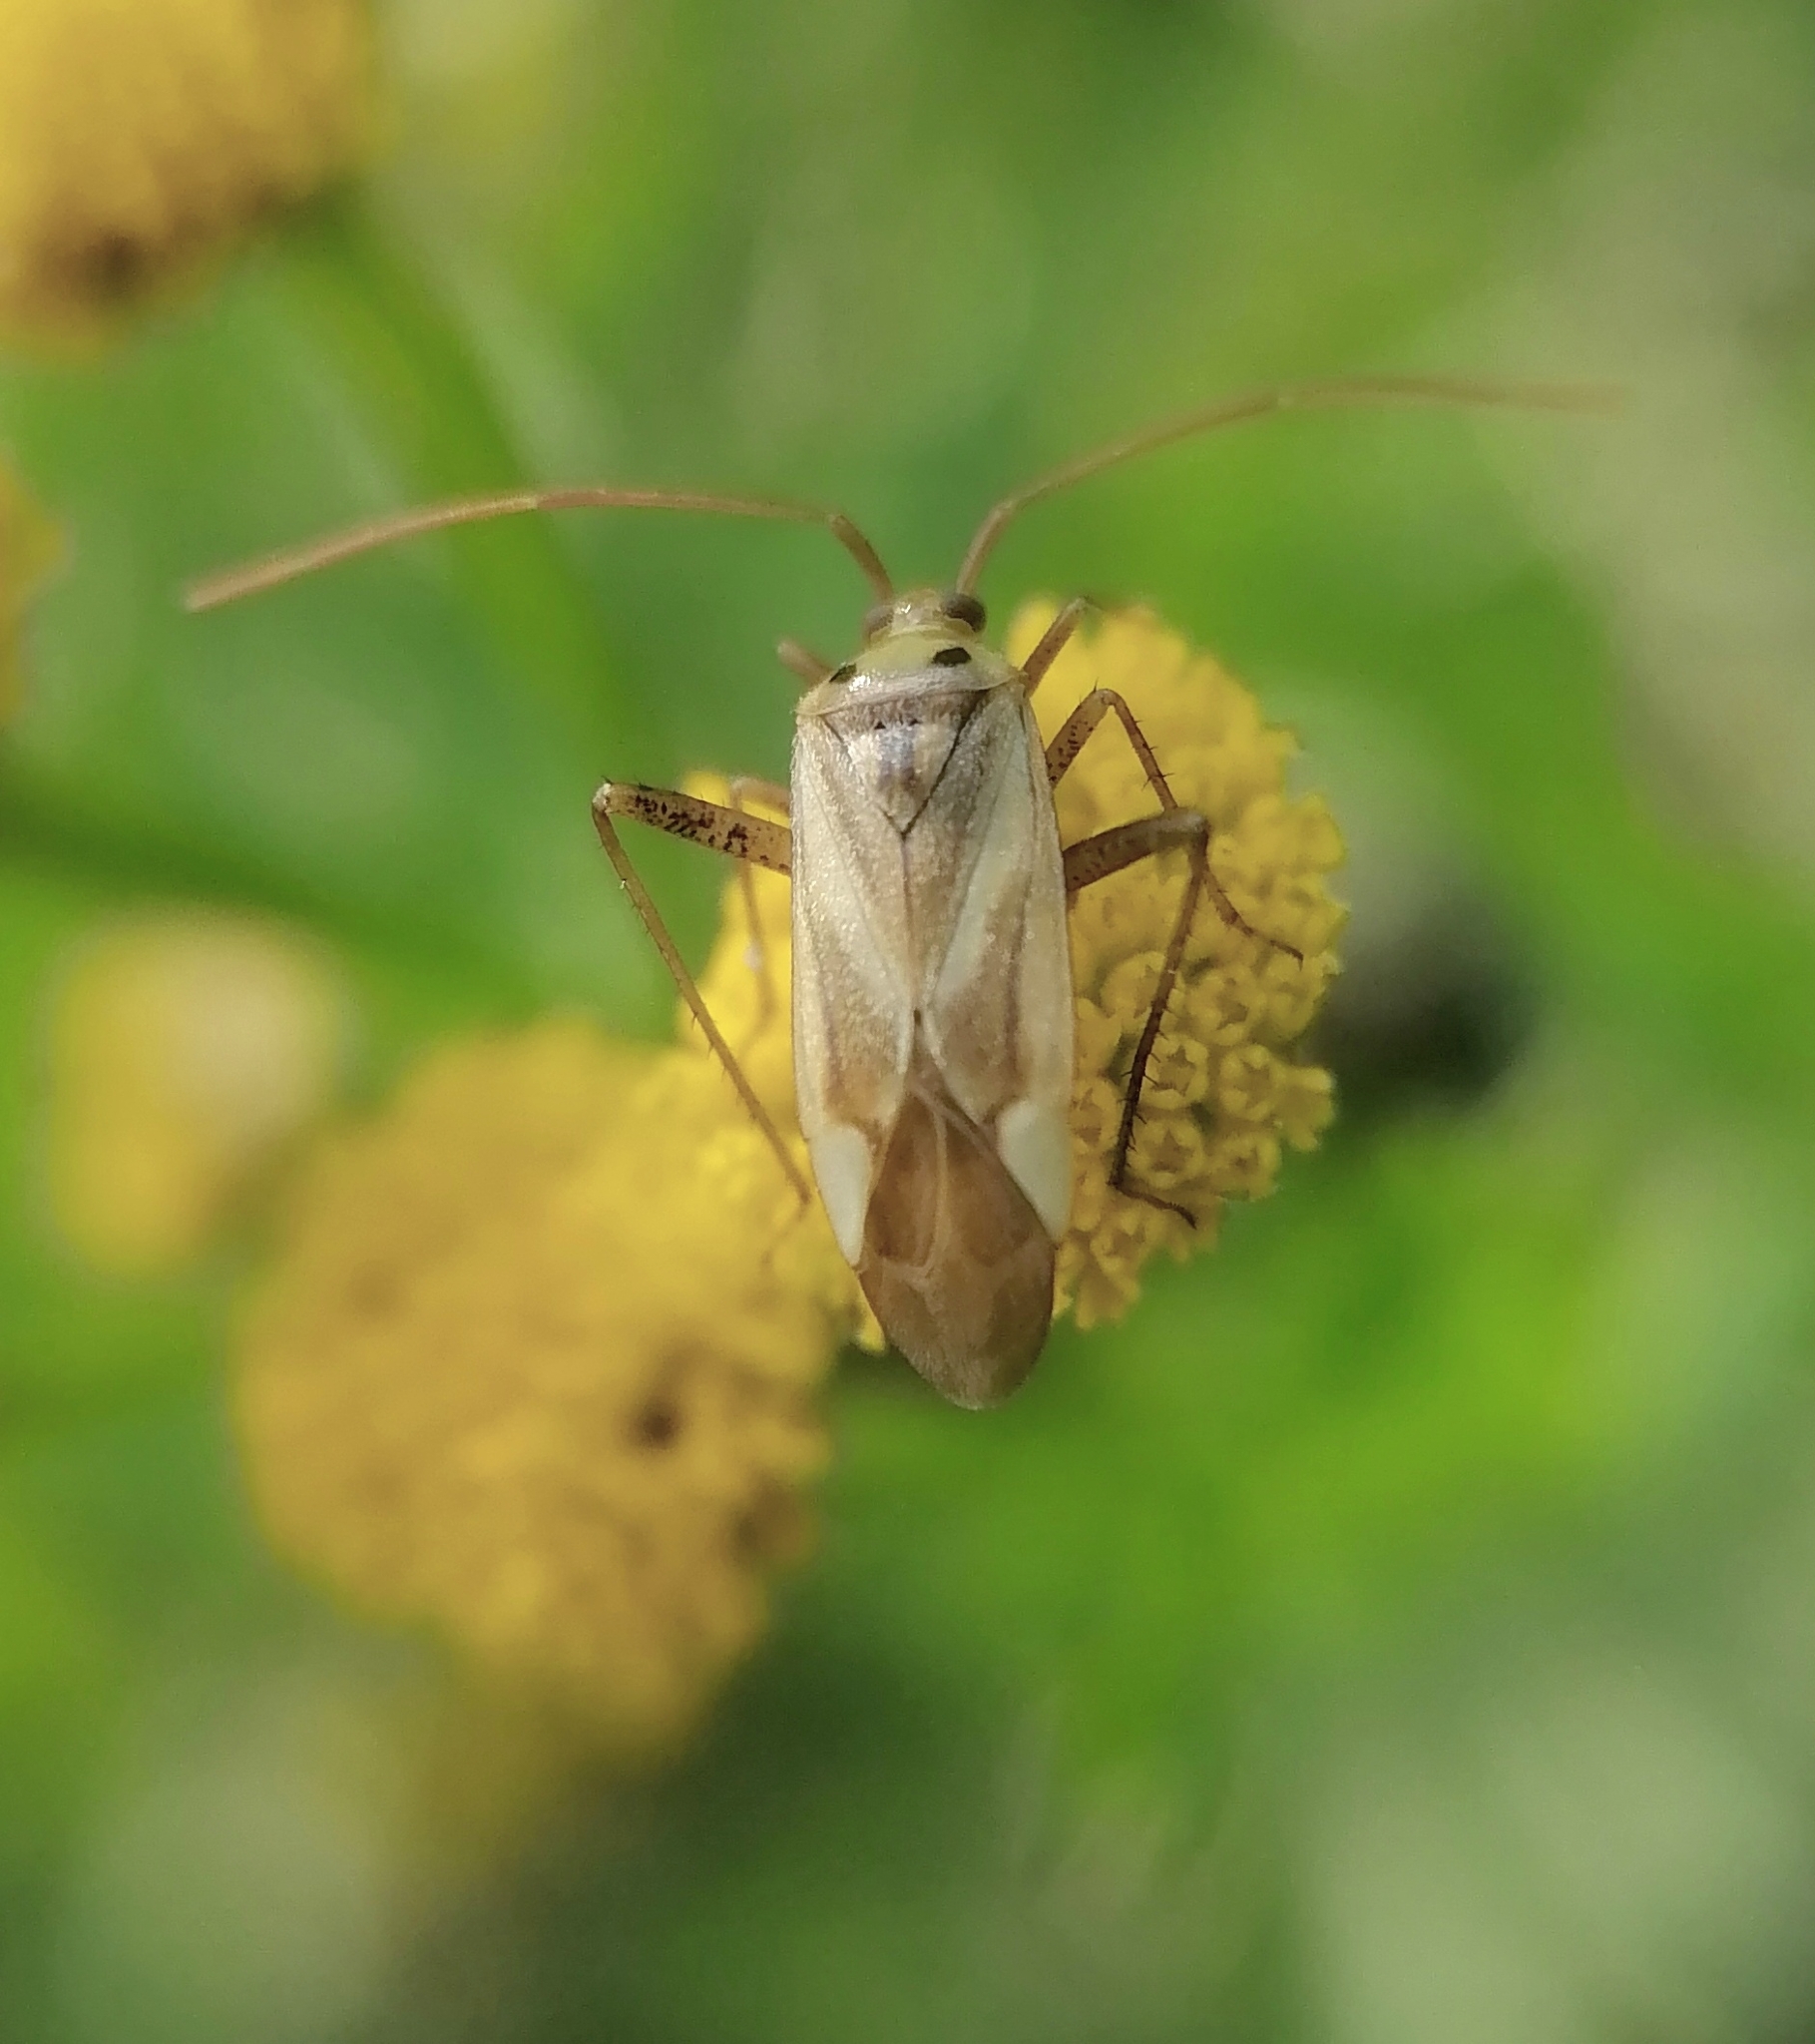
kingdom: Animalia
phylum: Arthropoda
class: Insecta
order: Hemiptera
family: Miridae
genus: Adelphocoris
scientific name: Adelphocoris lineolatus
